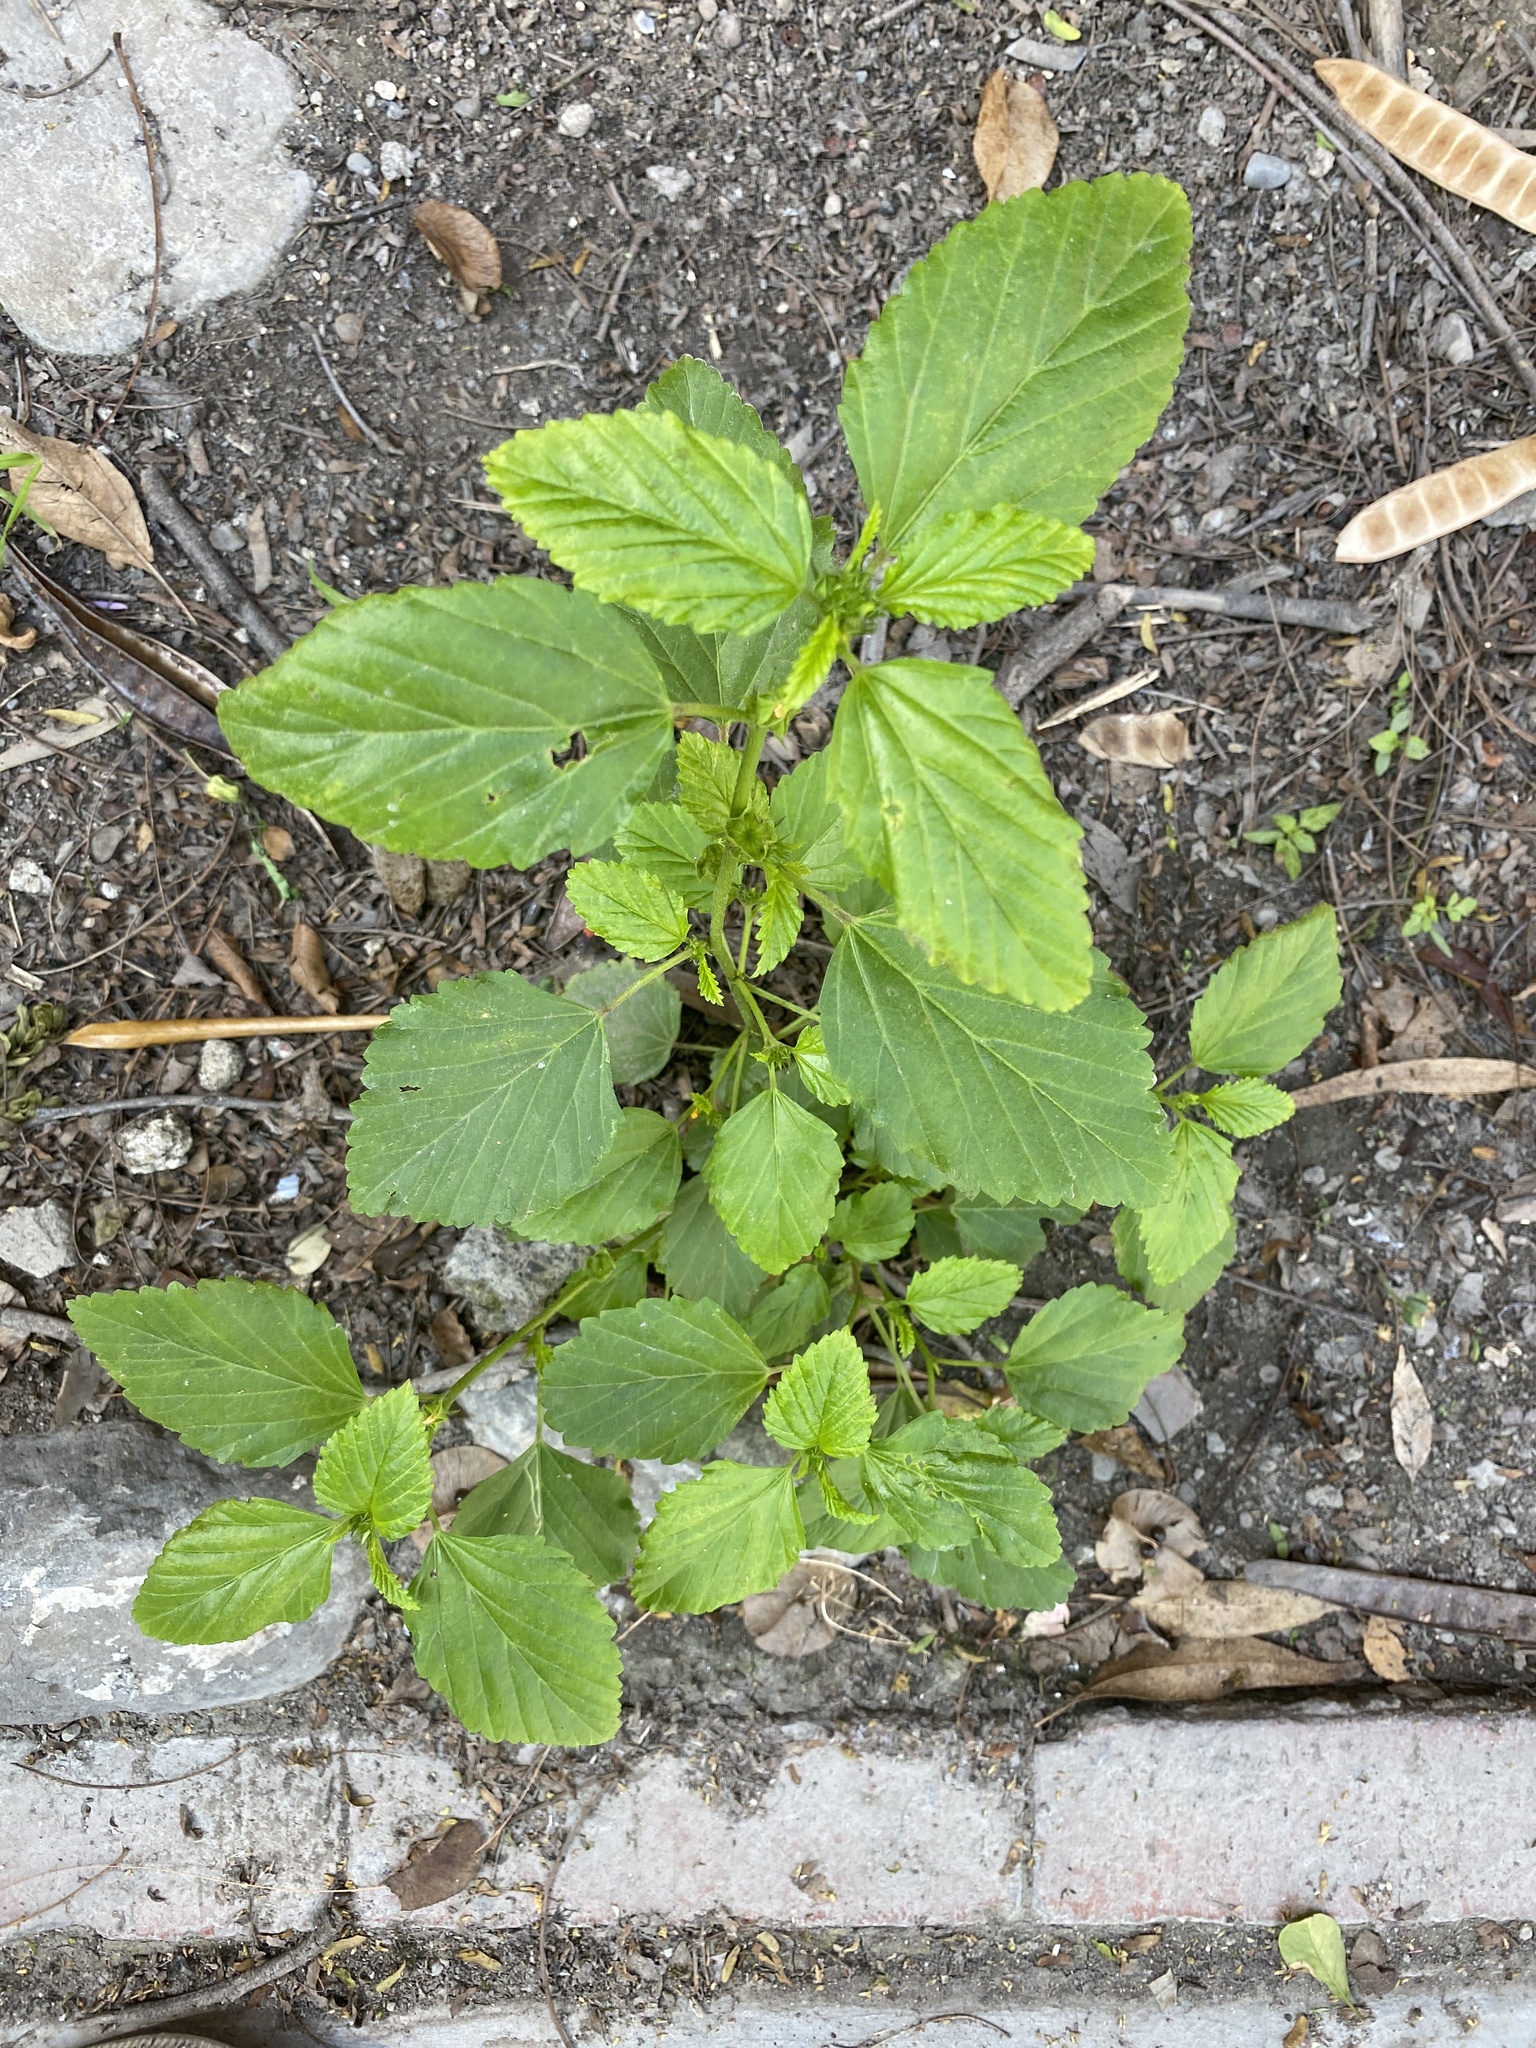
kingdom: Plantae
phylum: Tracheophyta
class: Magnoliopsida
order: Malvales
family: Malvaceae
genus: Malvastrum
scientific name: Malvastrum coromandelianum
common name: Threelobe false mallow
